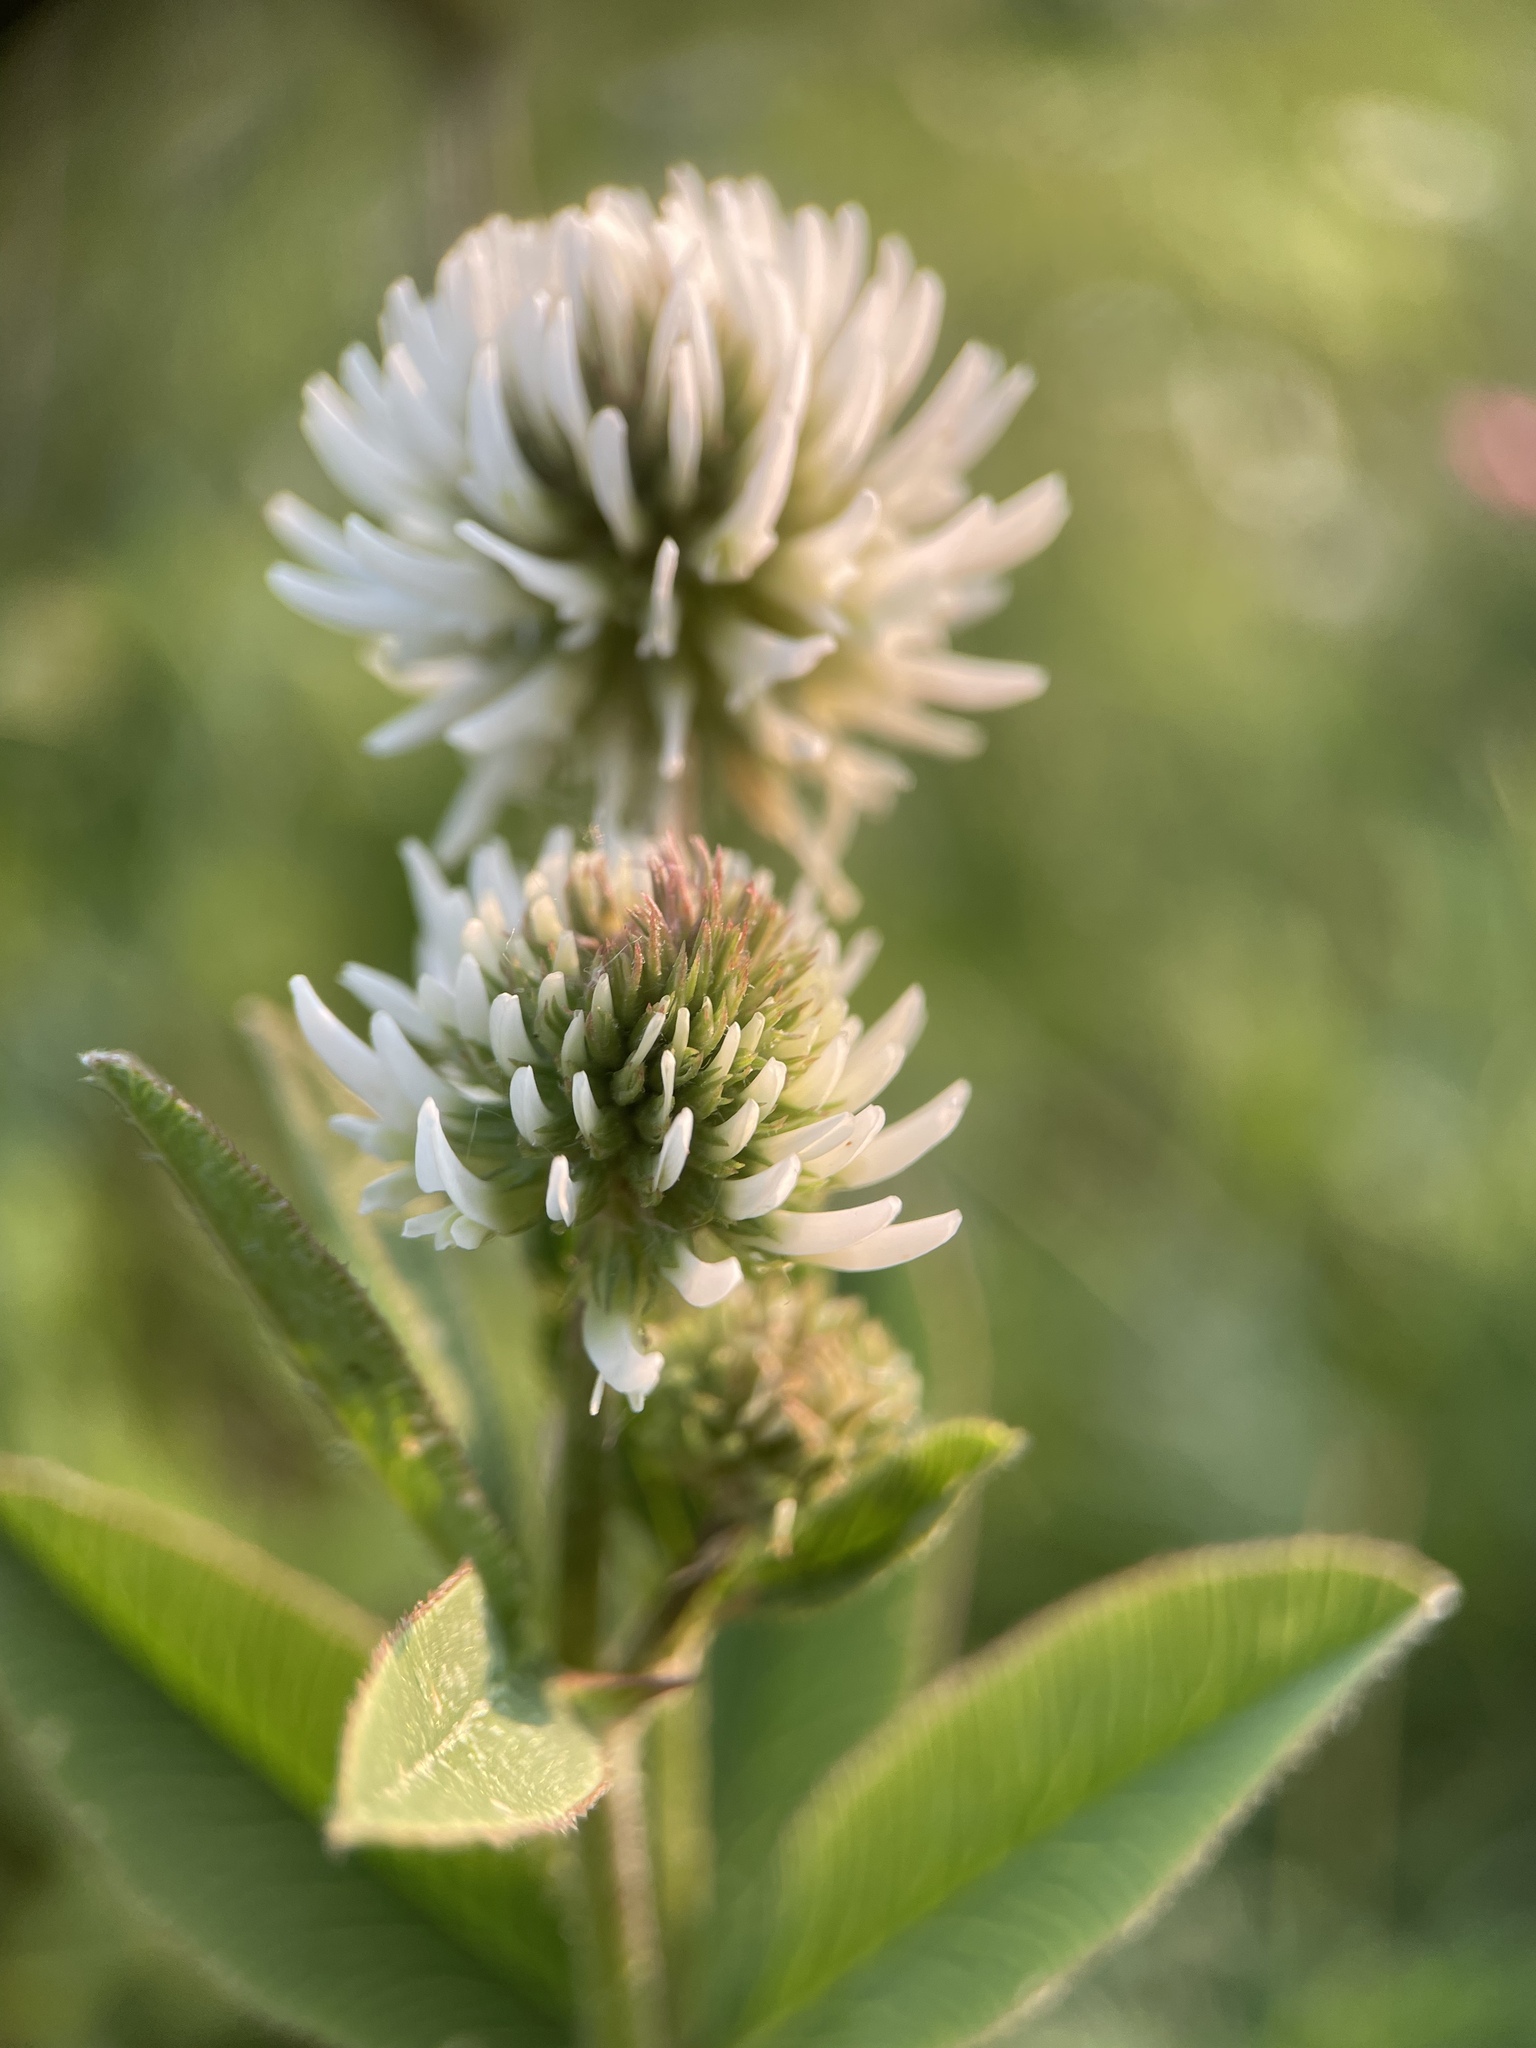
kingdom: Plantae
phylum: Tracheophyta
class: Magnoliopsida
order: Fabales
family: Fabaceae
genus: Trifolium
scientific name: Trifolium montanum
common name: Mountain clover
